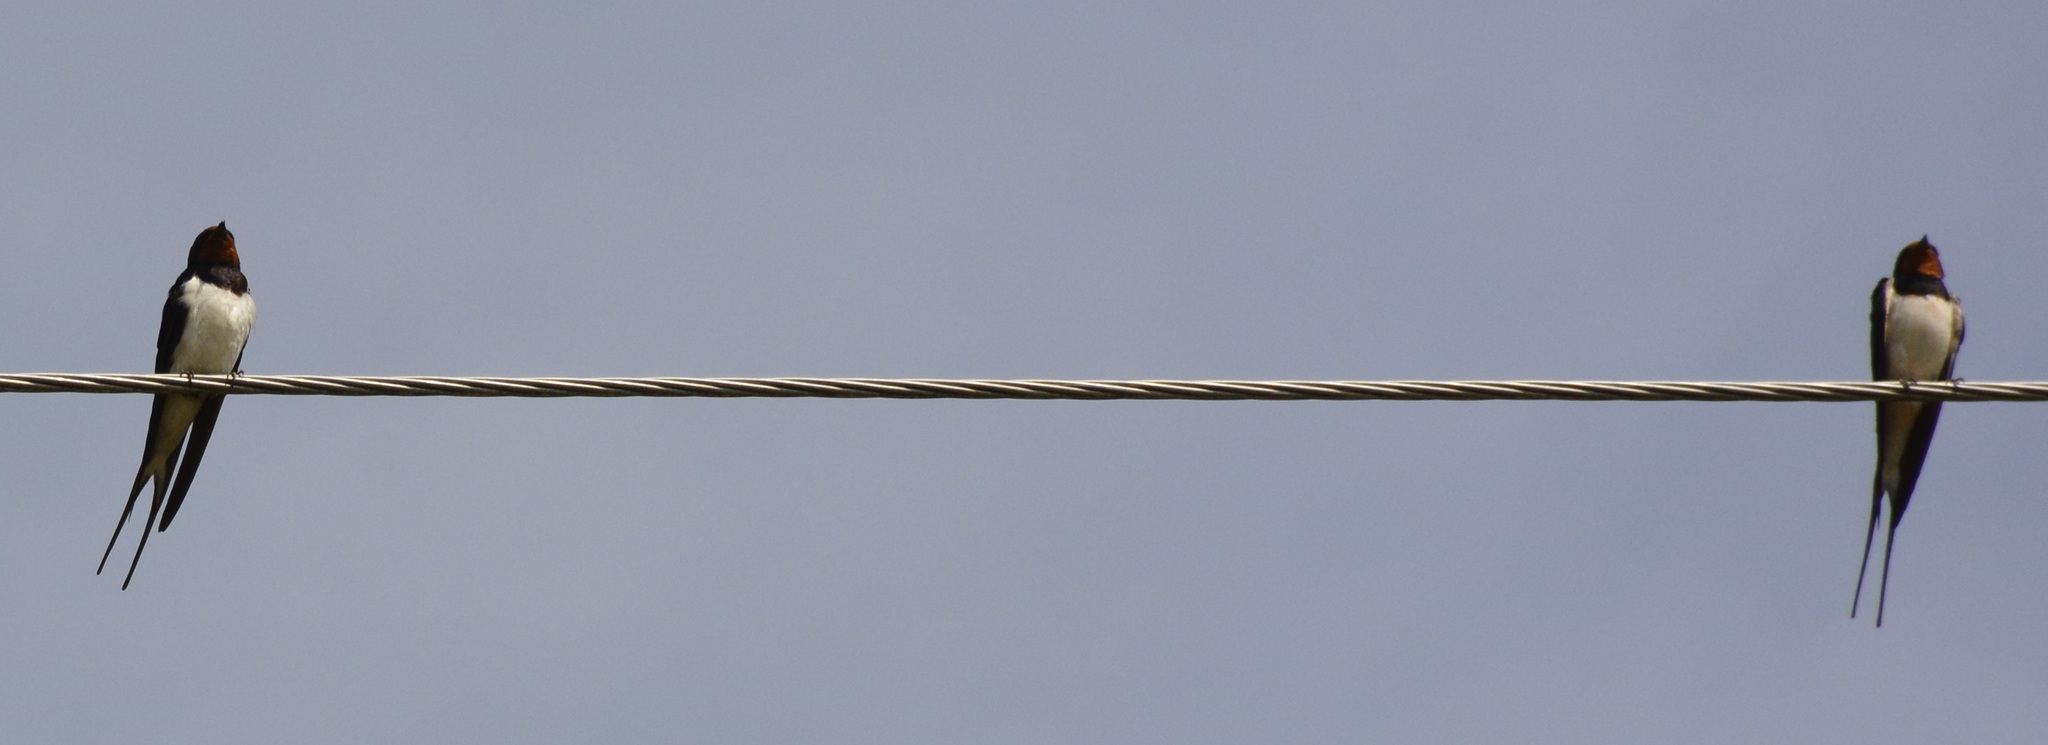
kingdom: Animalia
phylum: Chordata
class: Aves
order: Passeriformes
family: Hirundinidae
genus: Hirundo
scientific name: Hirundo rustica
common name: Barn swallow
